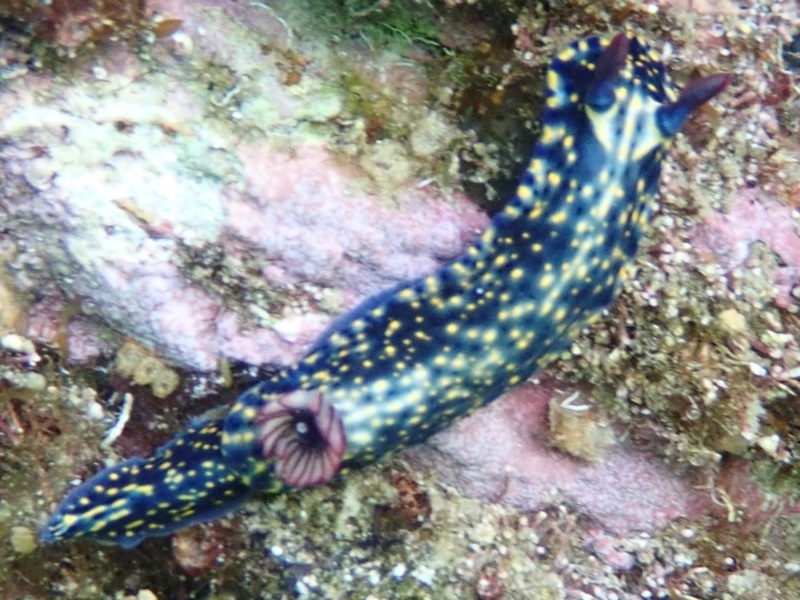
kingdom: Animalia
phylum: Mollusca
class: Gastropoda
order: Nudibranchia
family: Chromodorididae
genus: Hypselodoris
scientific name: Hypselodoris obscura
